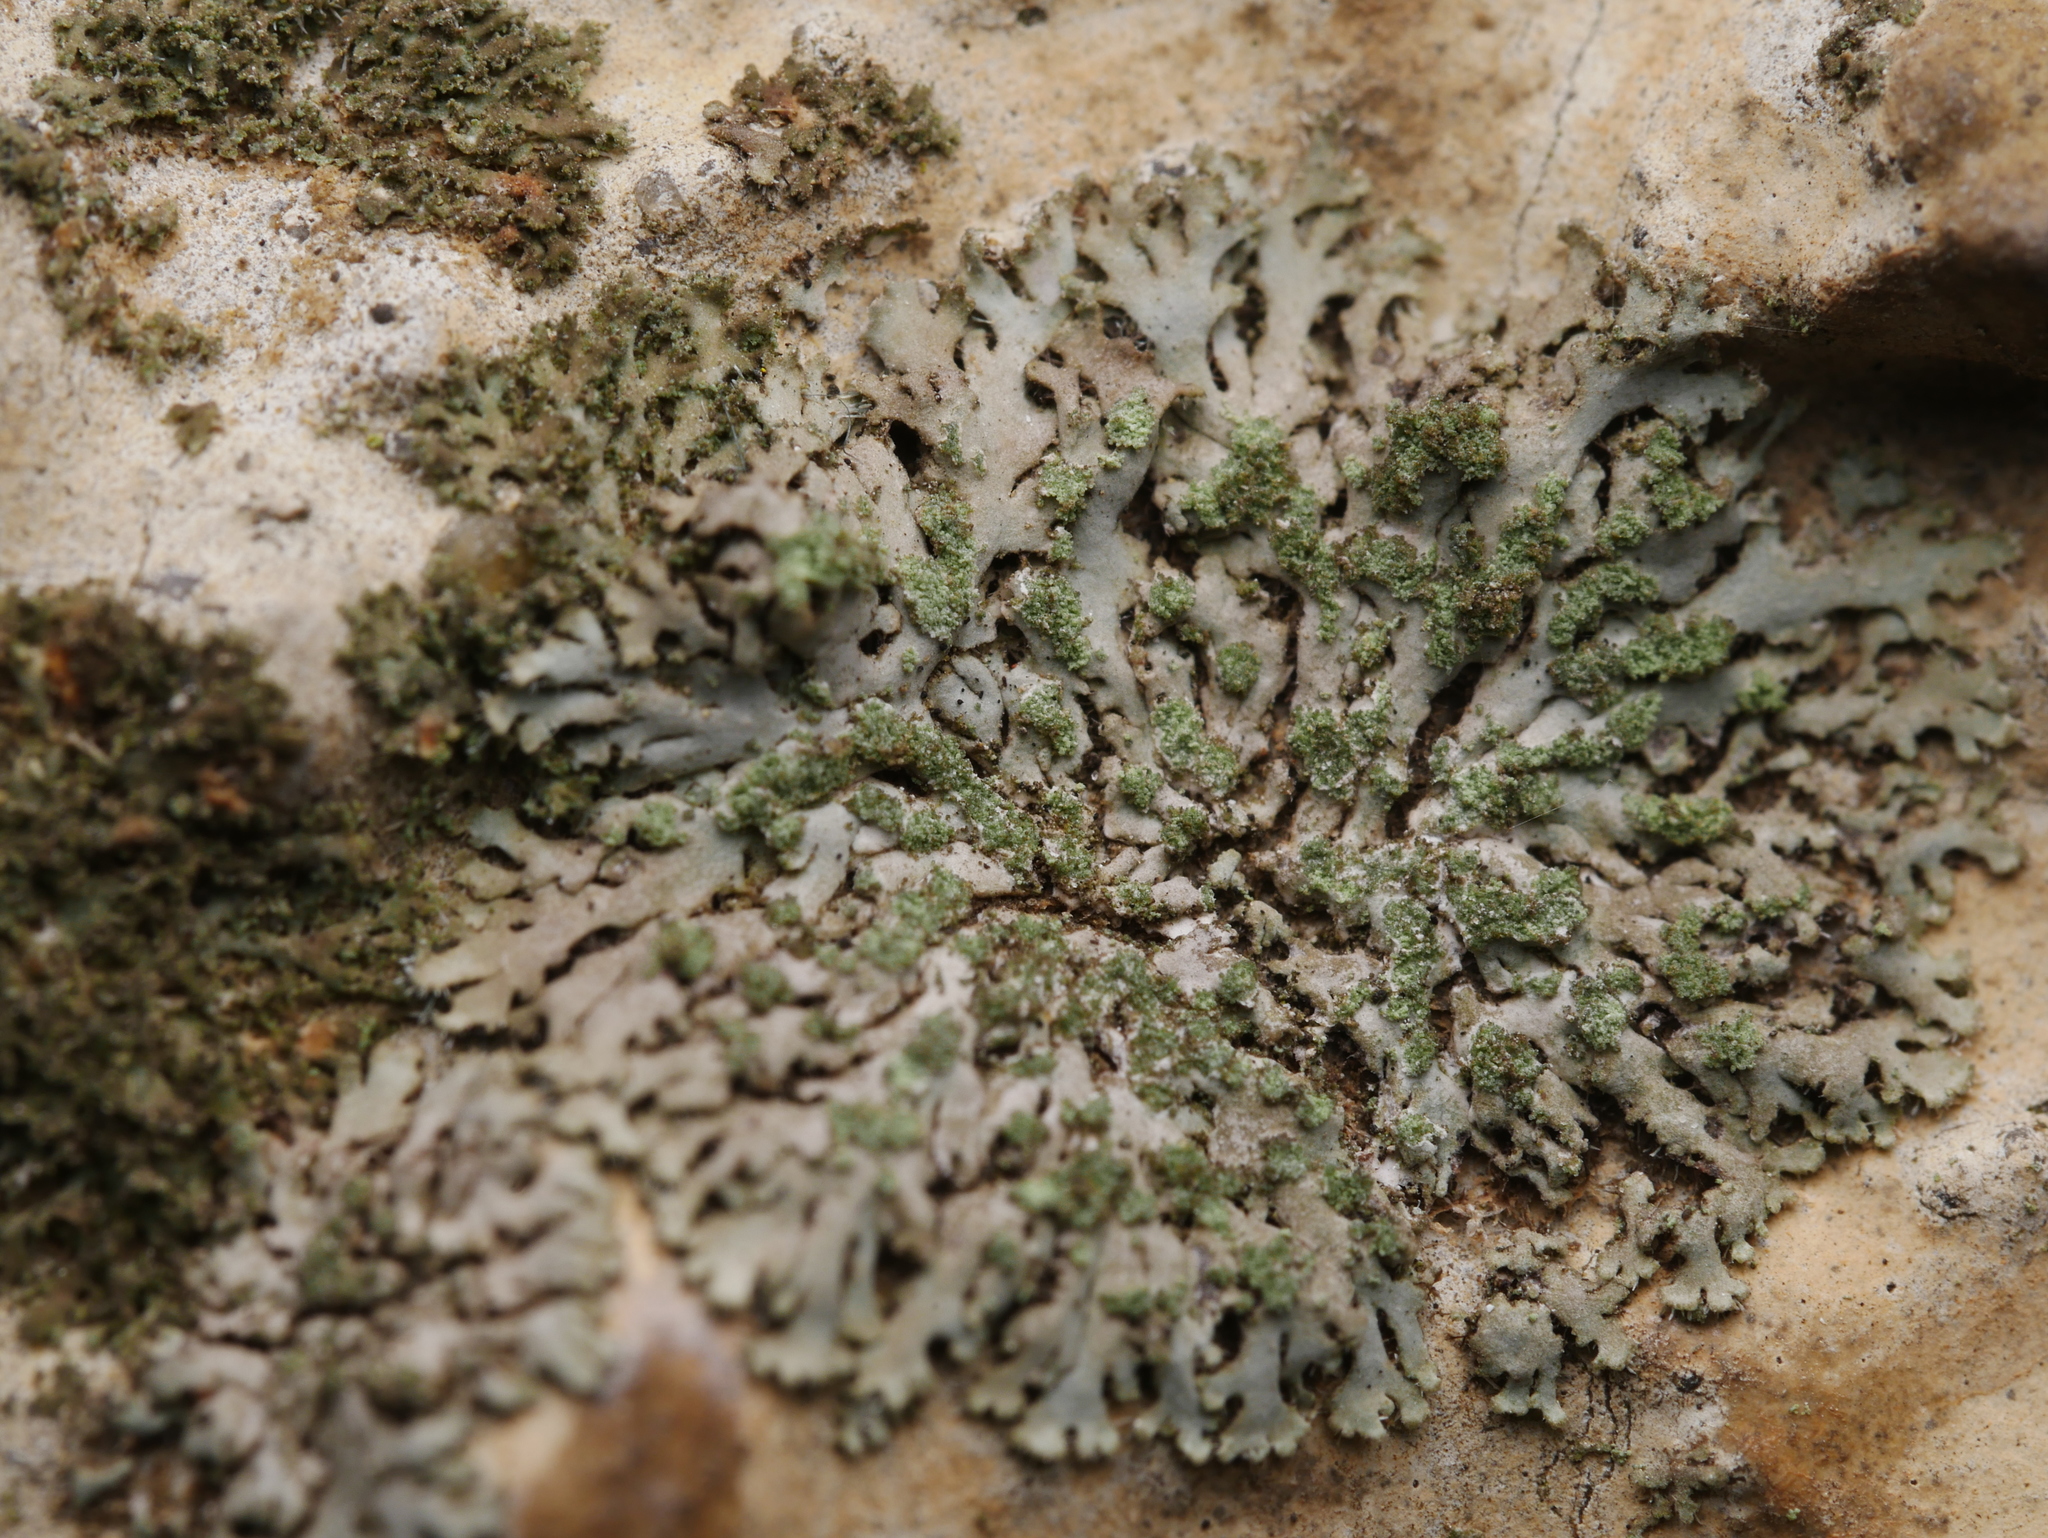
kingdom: Fungi
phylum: Ascomycota
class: Lecanoromycetes
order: Caliciales
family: Physciaceae
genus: Phaeophyscia
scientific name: Phaeophyscia orbicularis
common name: Mealy shadow lichen
